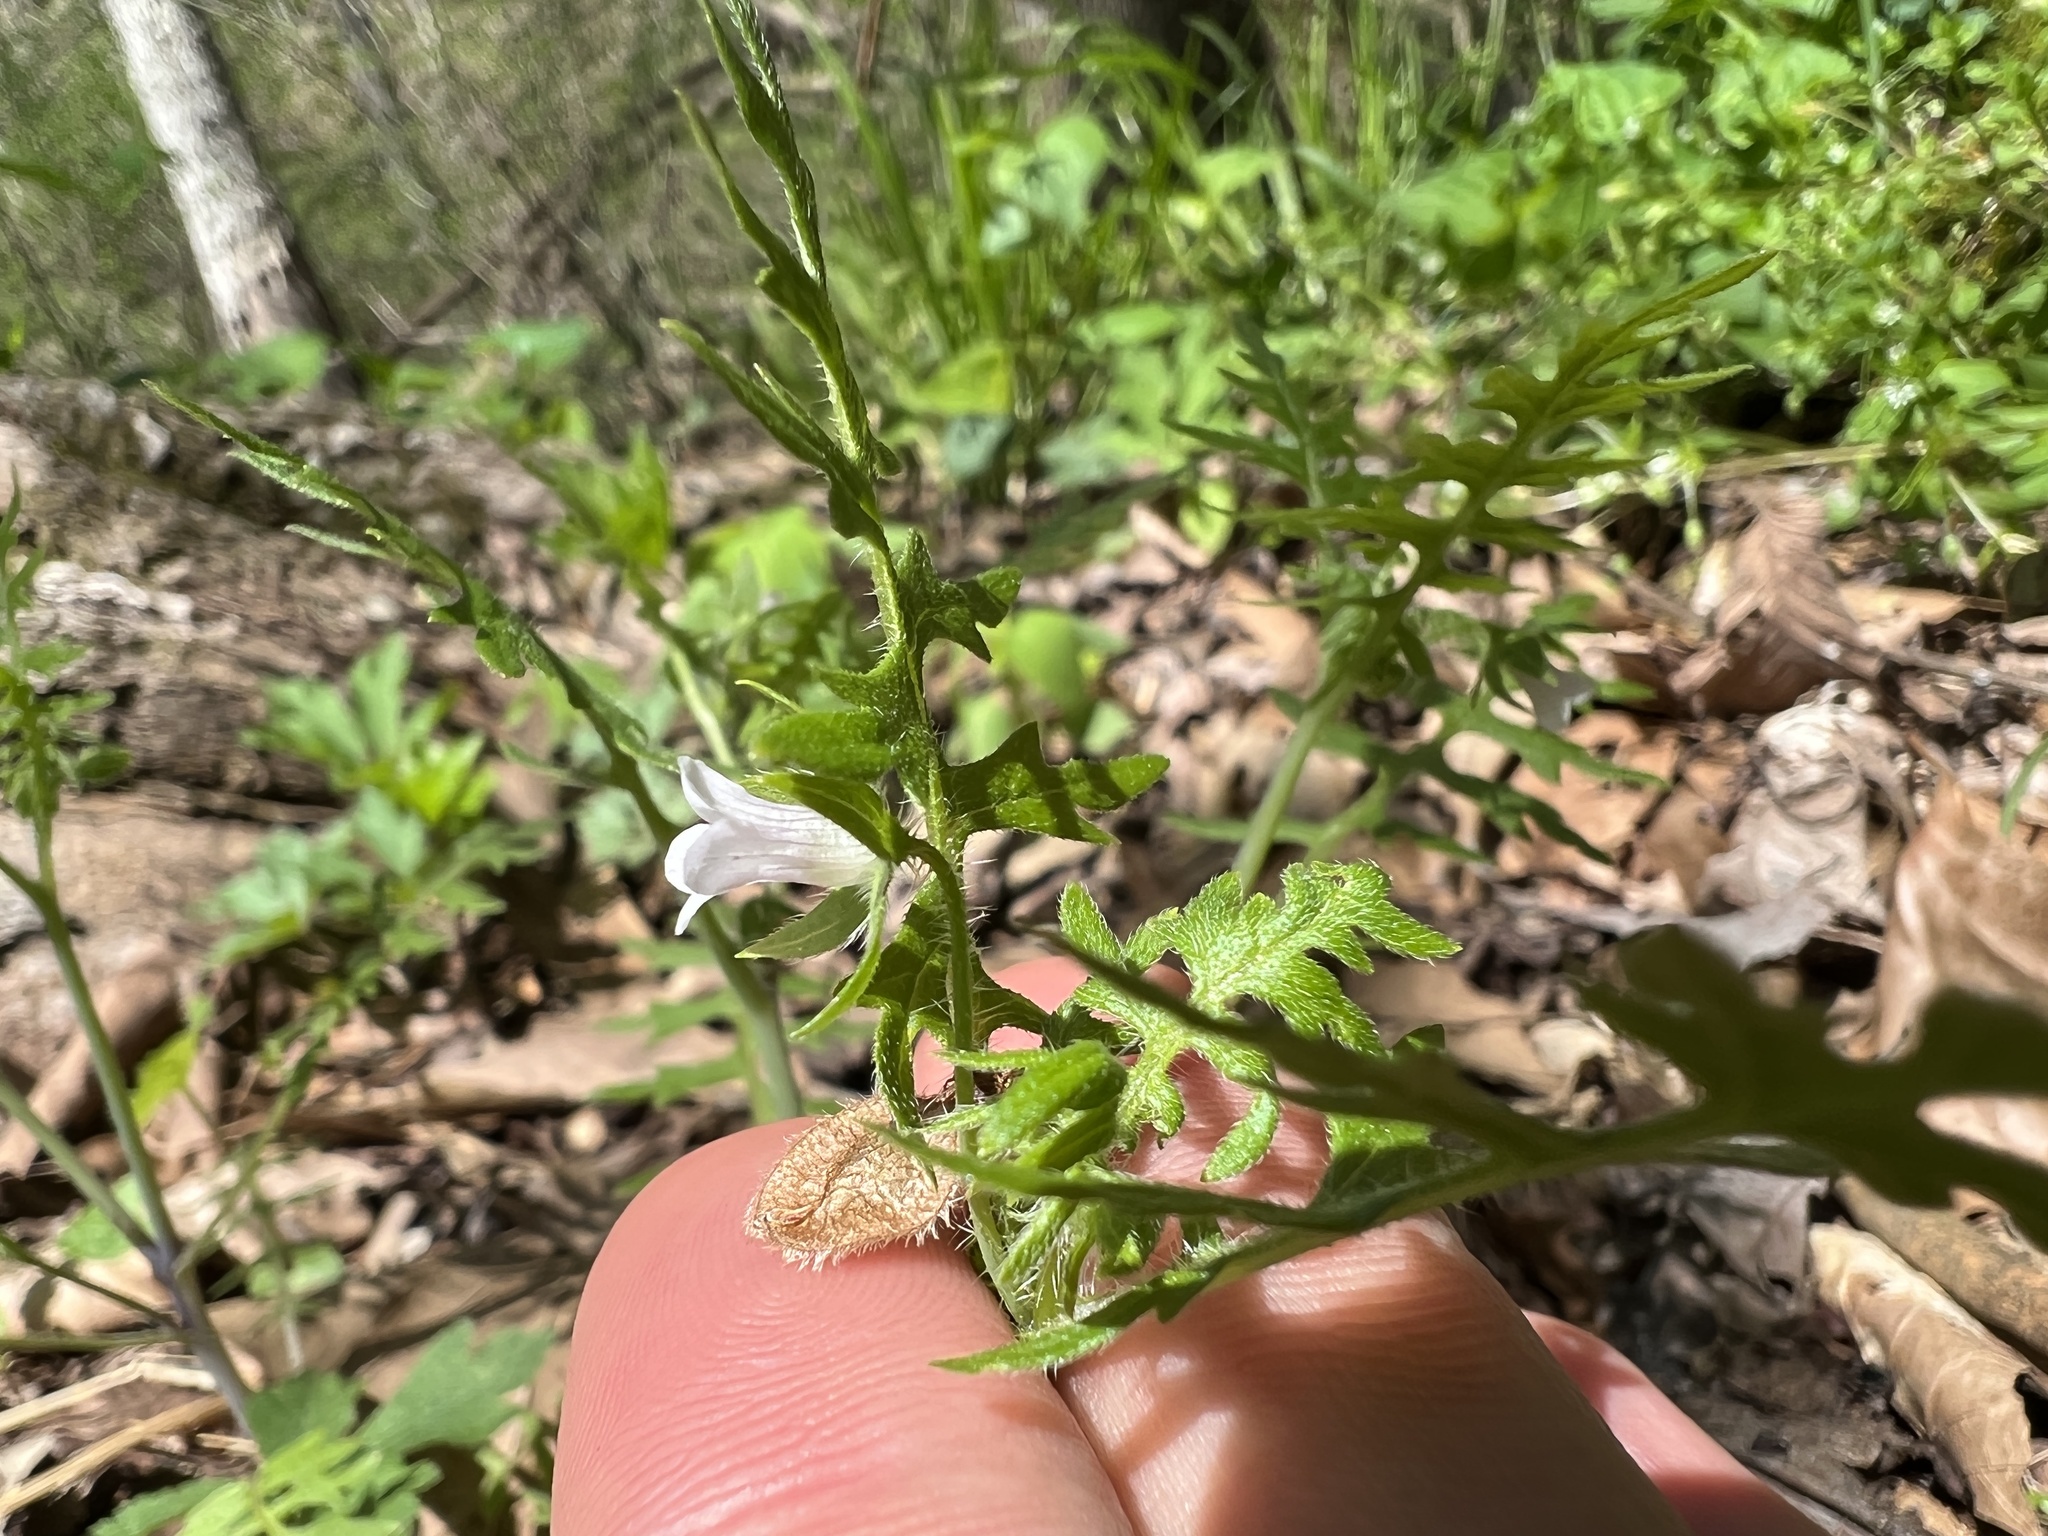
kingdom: Plantae
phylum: Tracheophyta
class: Magnoliopsida
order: Boraginales
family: Hydrophyllaceae
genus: Ellisia
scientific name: Ellisia nyctelea
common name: Aunt lucy
